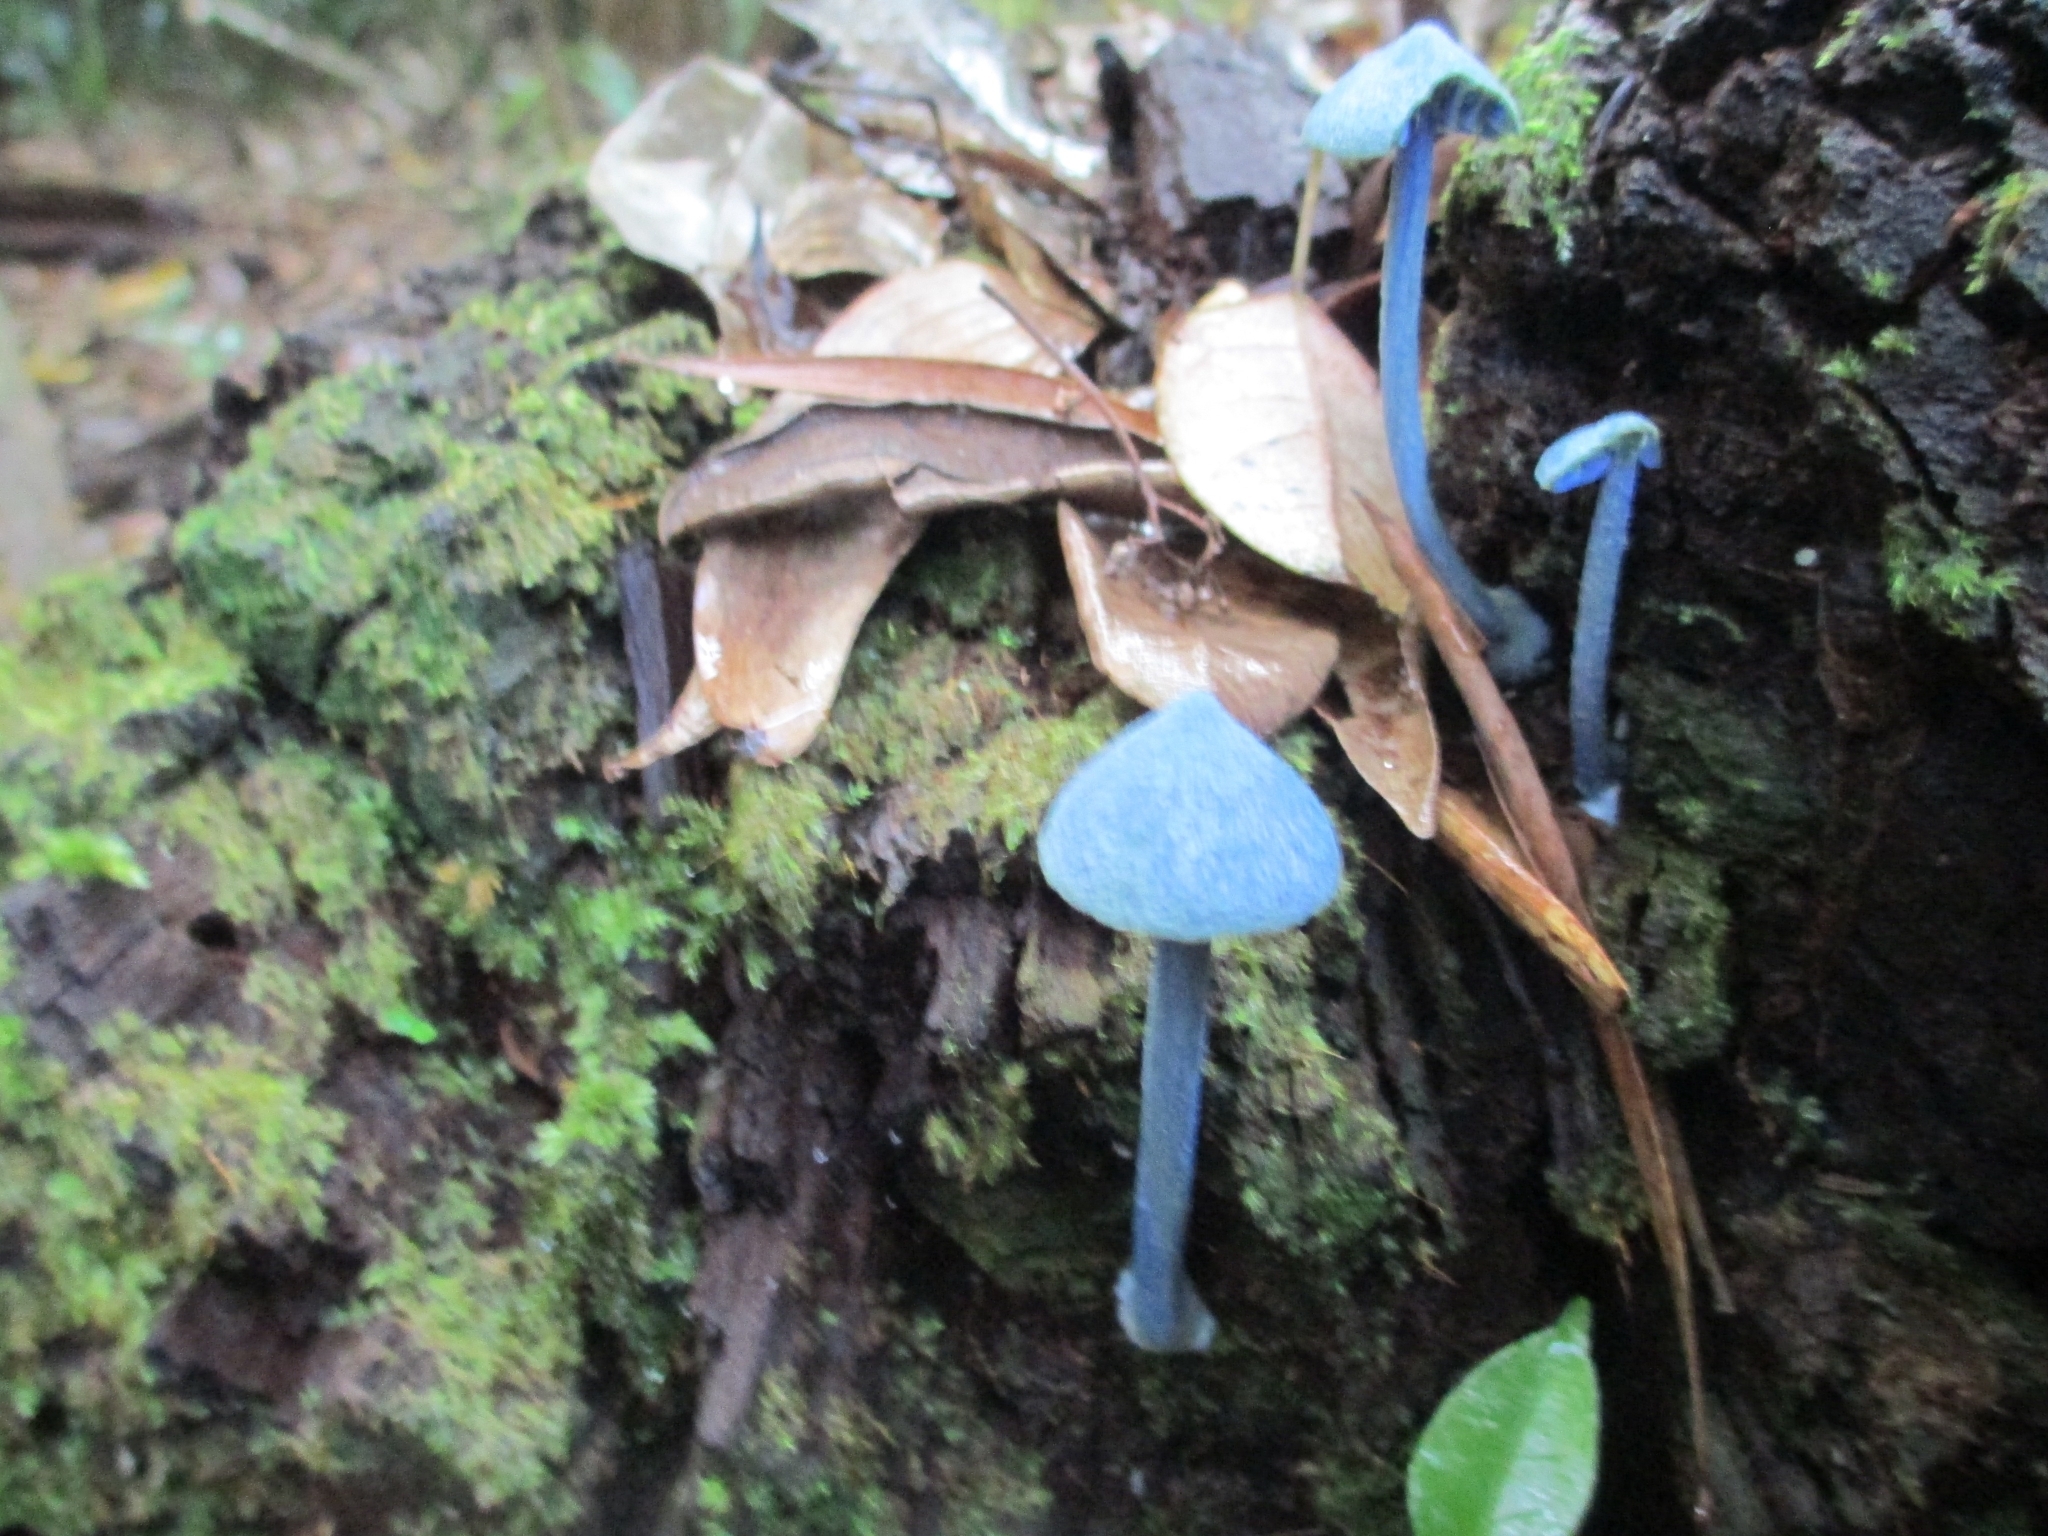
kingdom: Fungi
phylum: Basidiomycota
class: Agaricomycetes
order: Agaricales
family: Entolomataceae
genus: Entoloma
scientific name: Entoloma virescens
